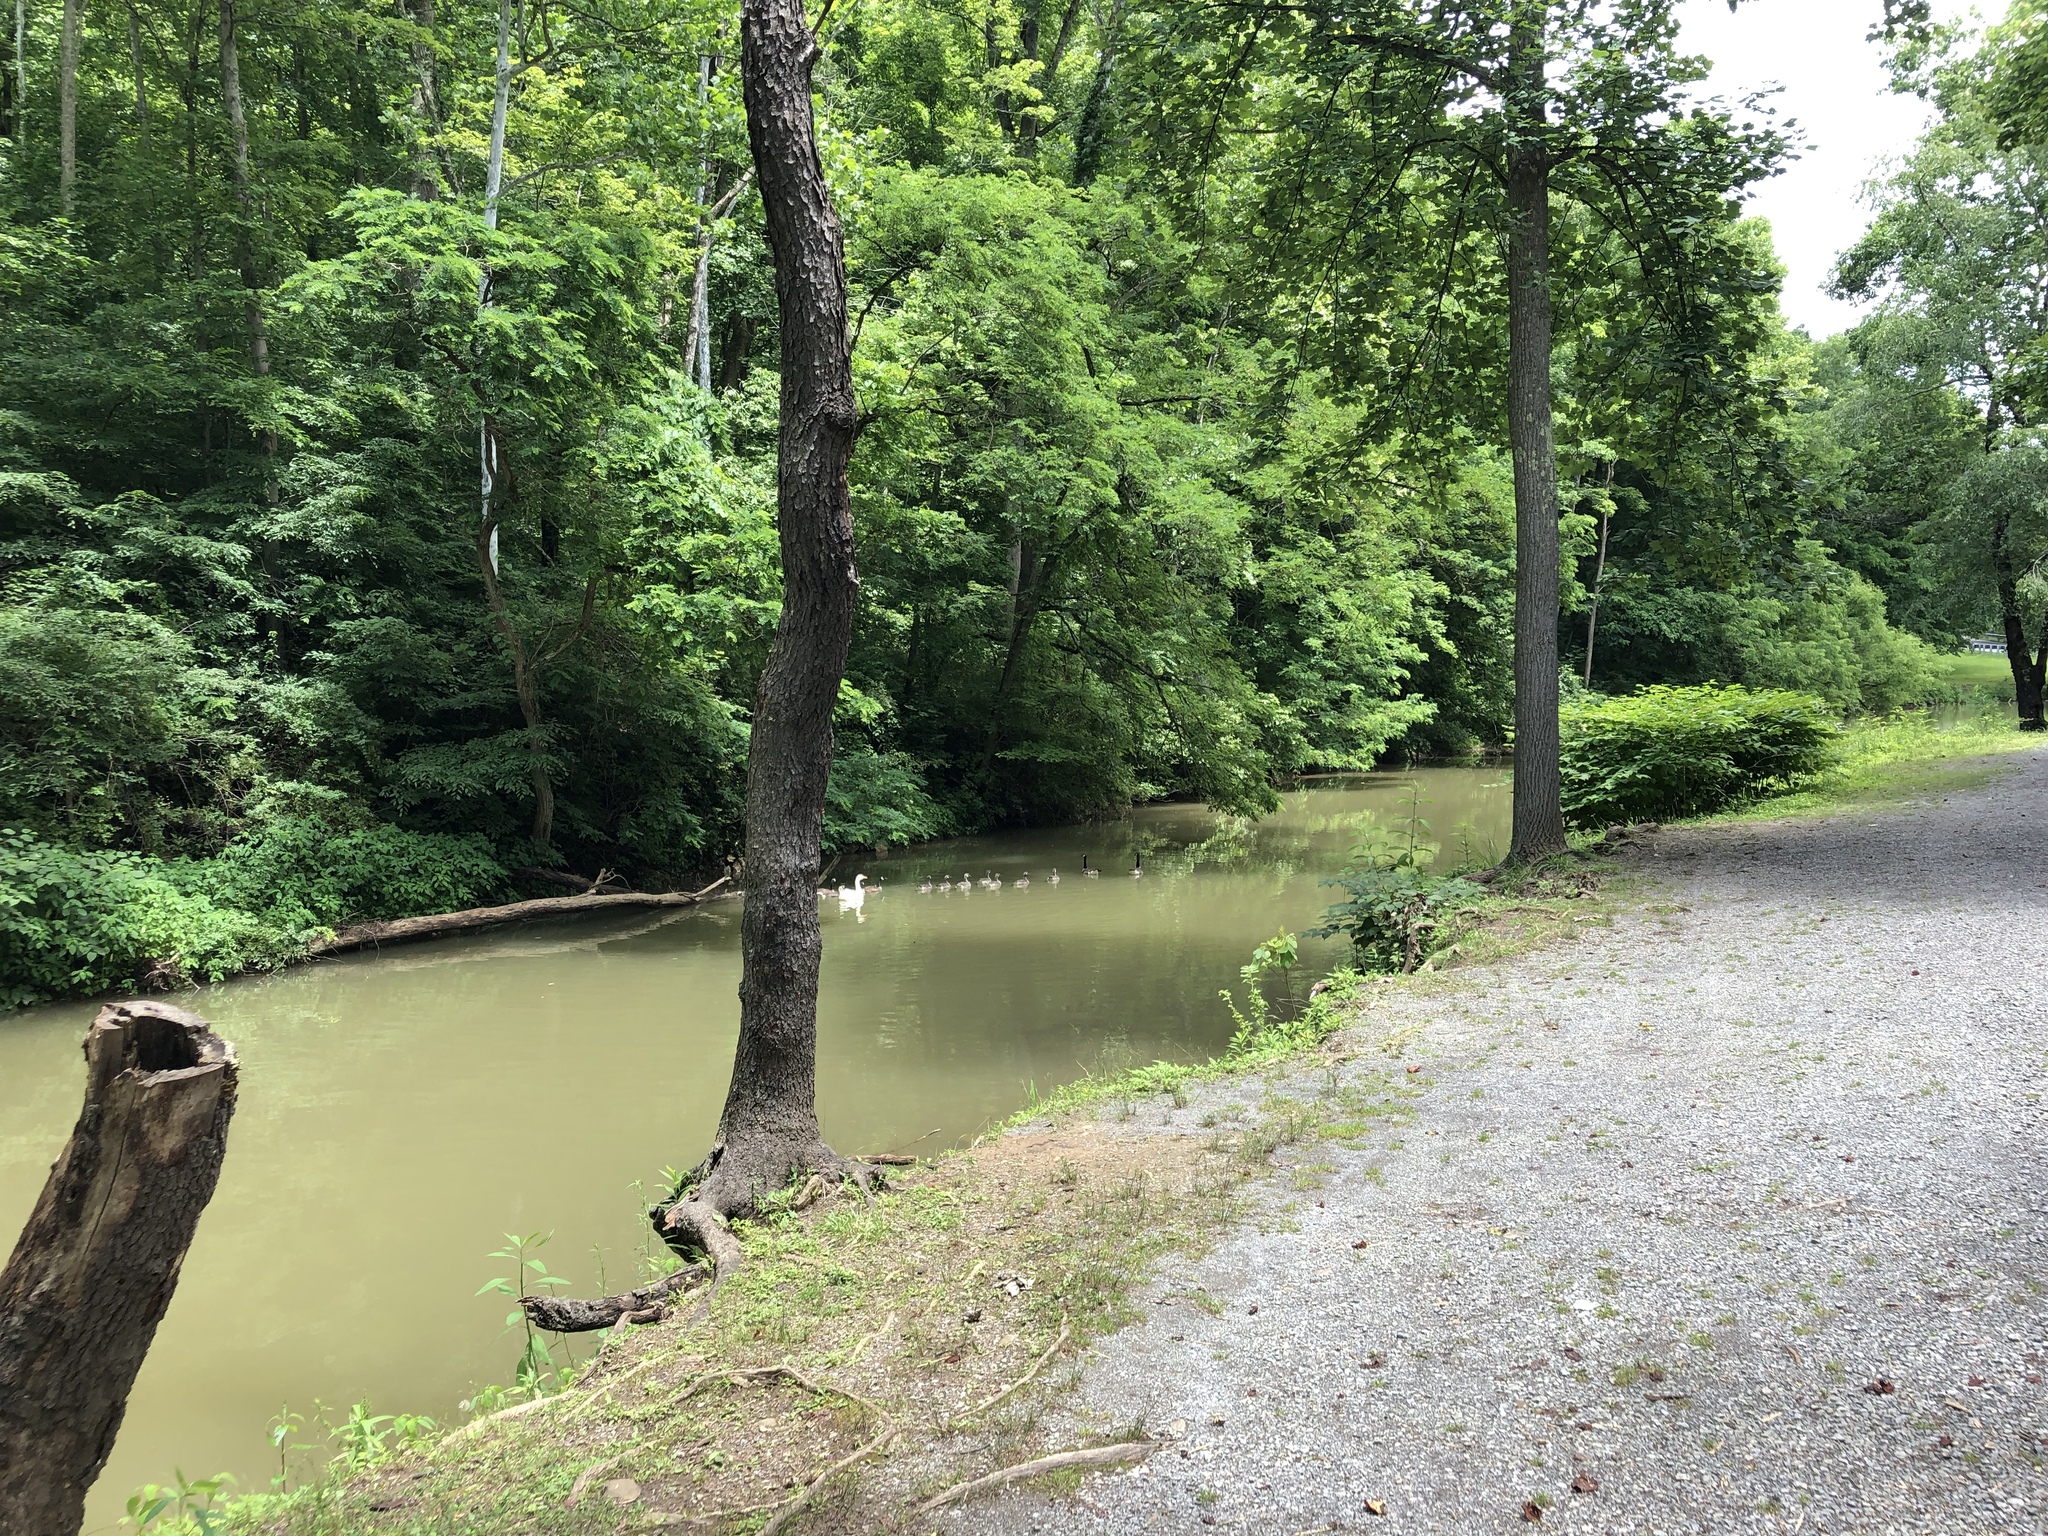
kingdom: Animalia
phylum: Chordata
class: Aves
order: Anseriformes
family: Anatidae
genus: Branta
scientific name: Branta canadensis
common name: Canada goose
